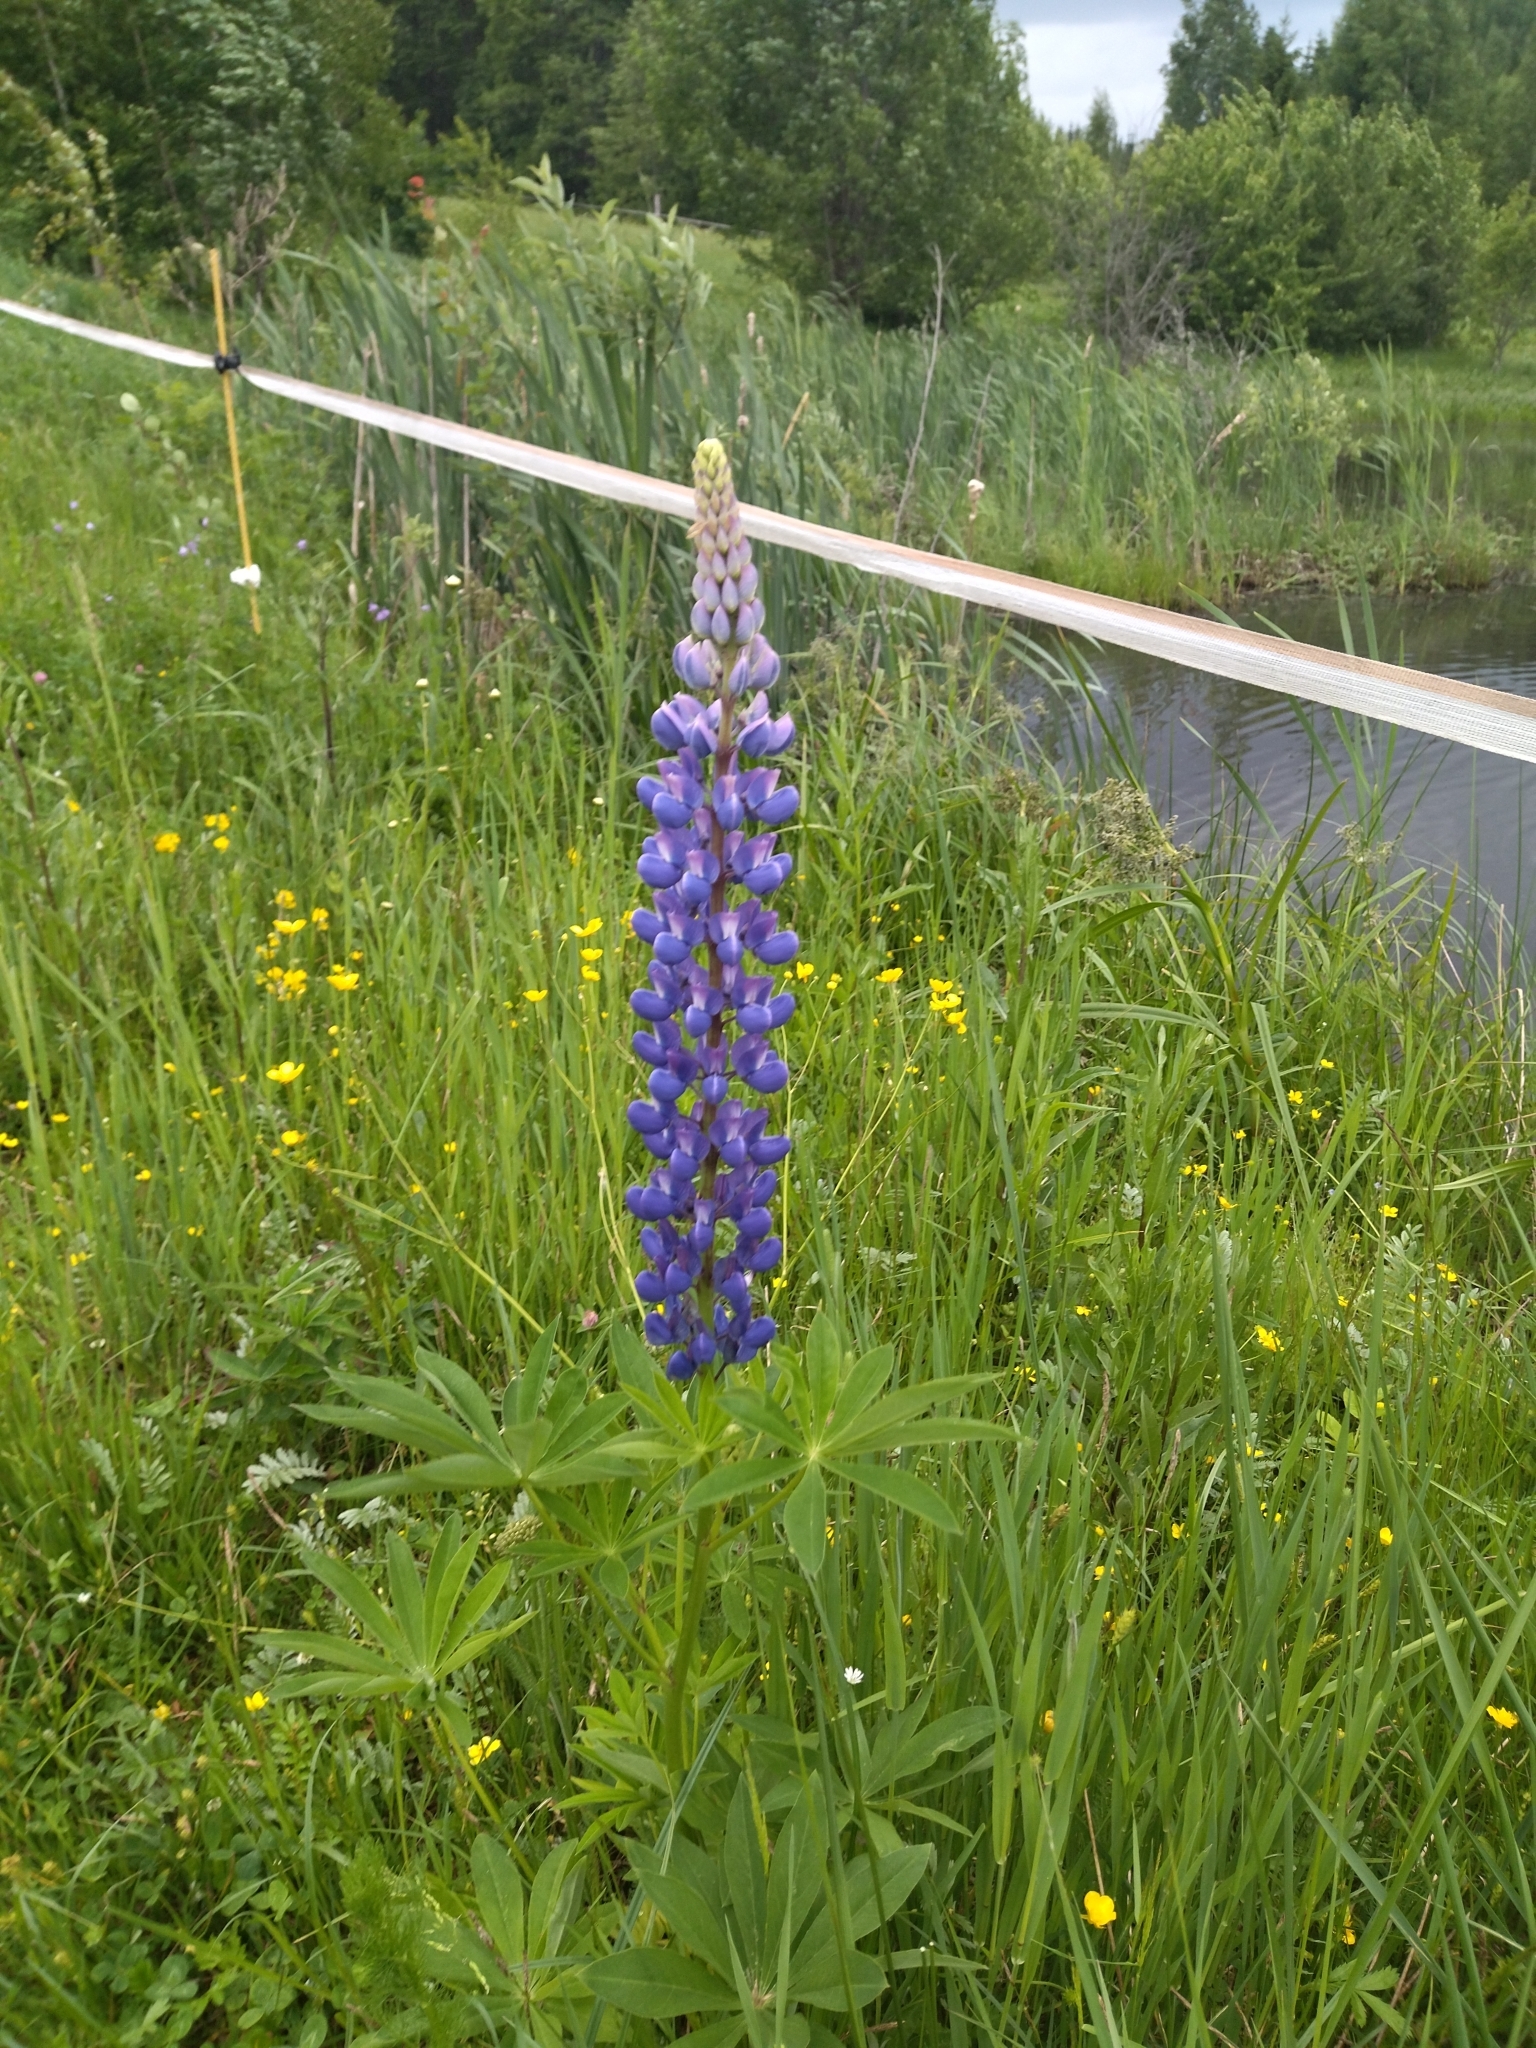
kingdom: Plantae
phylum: Tracheophyta
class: Magnoliopsida
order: Fabales
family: Fabaceae
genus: Lupinus
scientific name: Lupinus polyphyllus
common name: Garden lupin
